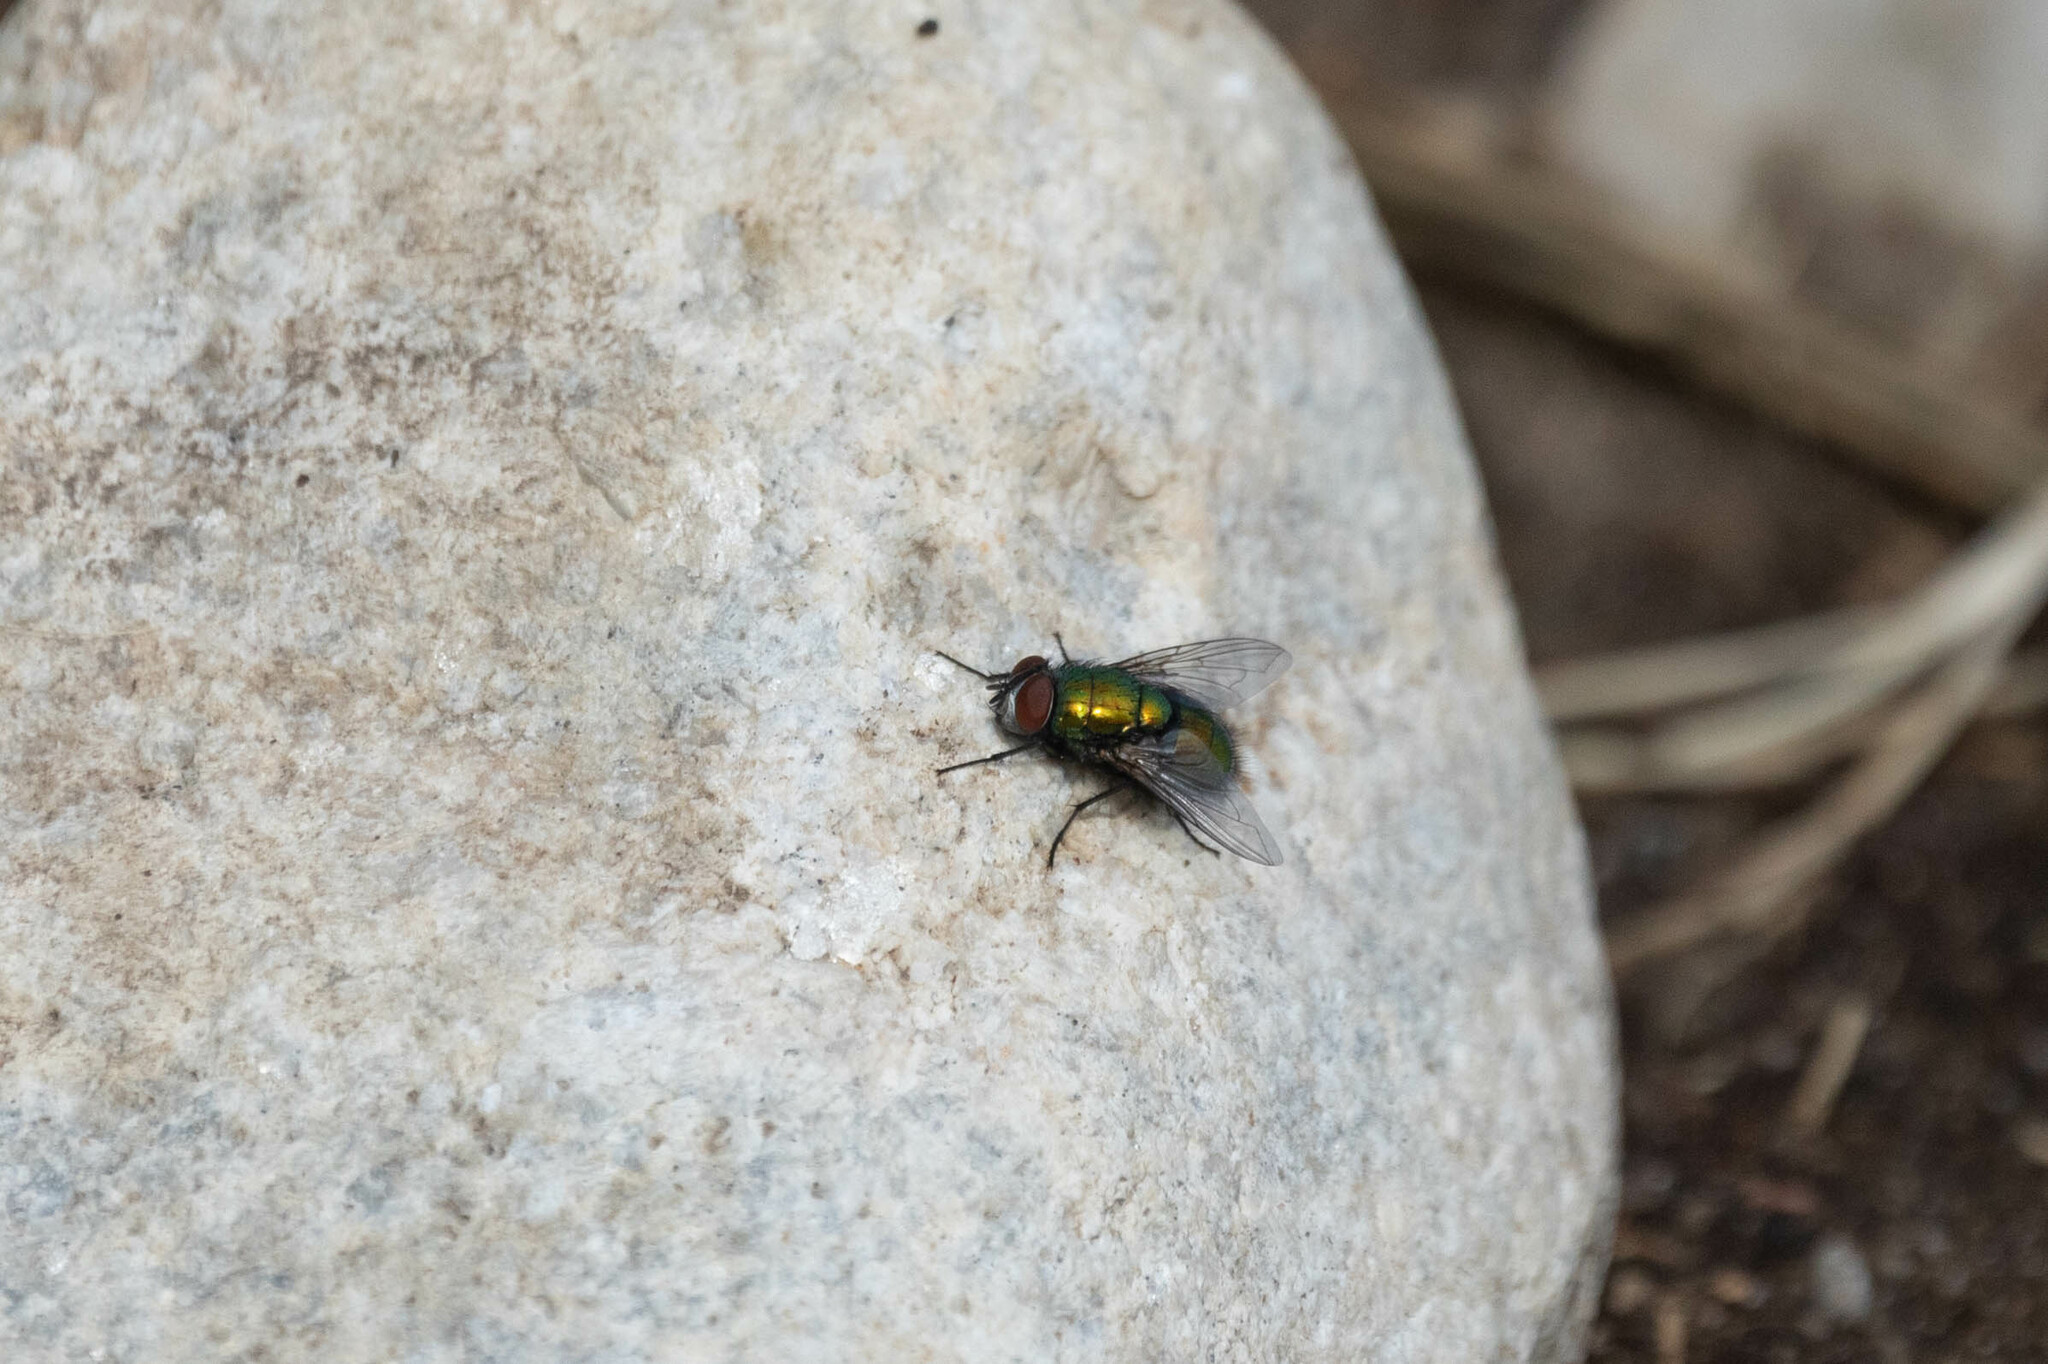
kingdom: Animalia
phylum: Arthropoda
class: Insecta
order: Diptera
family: Calliphoridae
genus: Lucilia
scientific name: Lucilia sericata
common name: Blow fly
